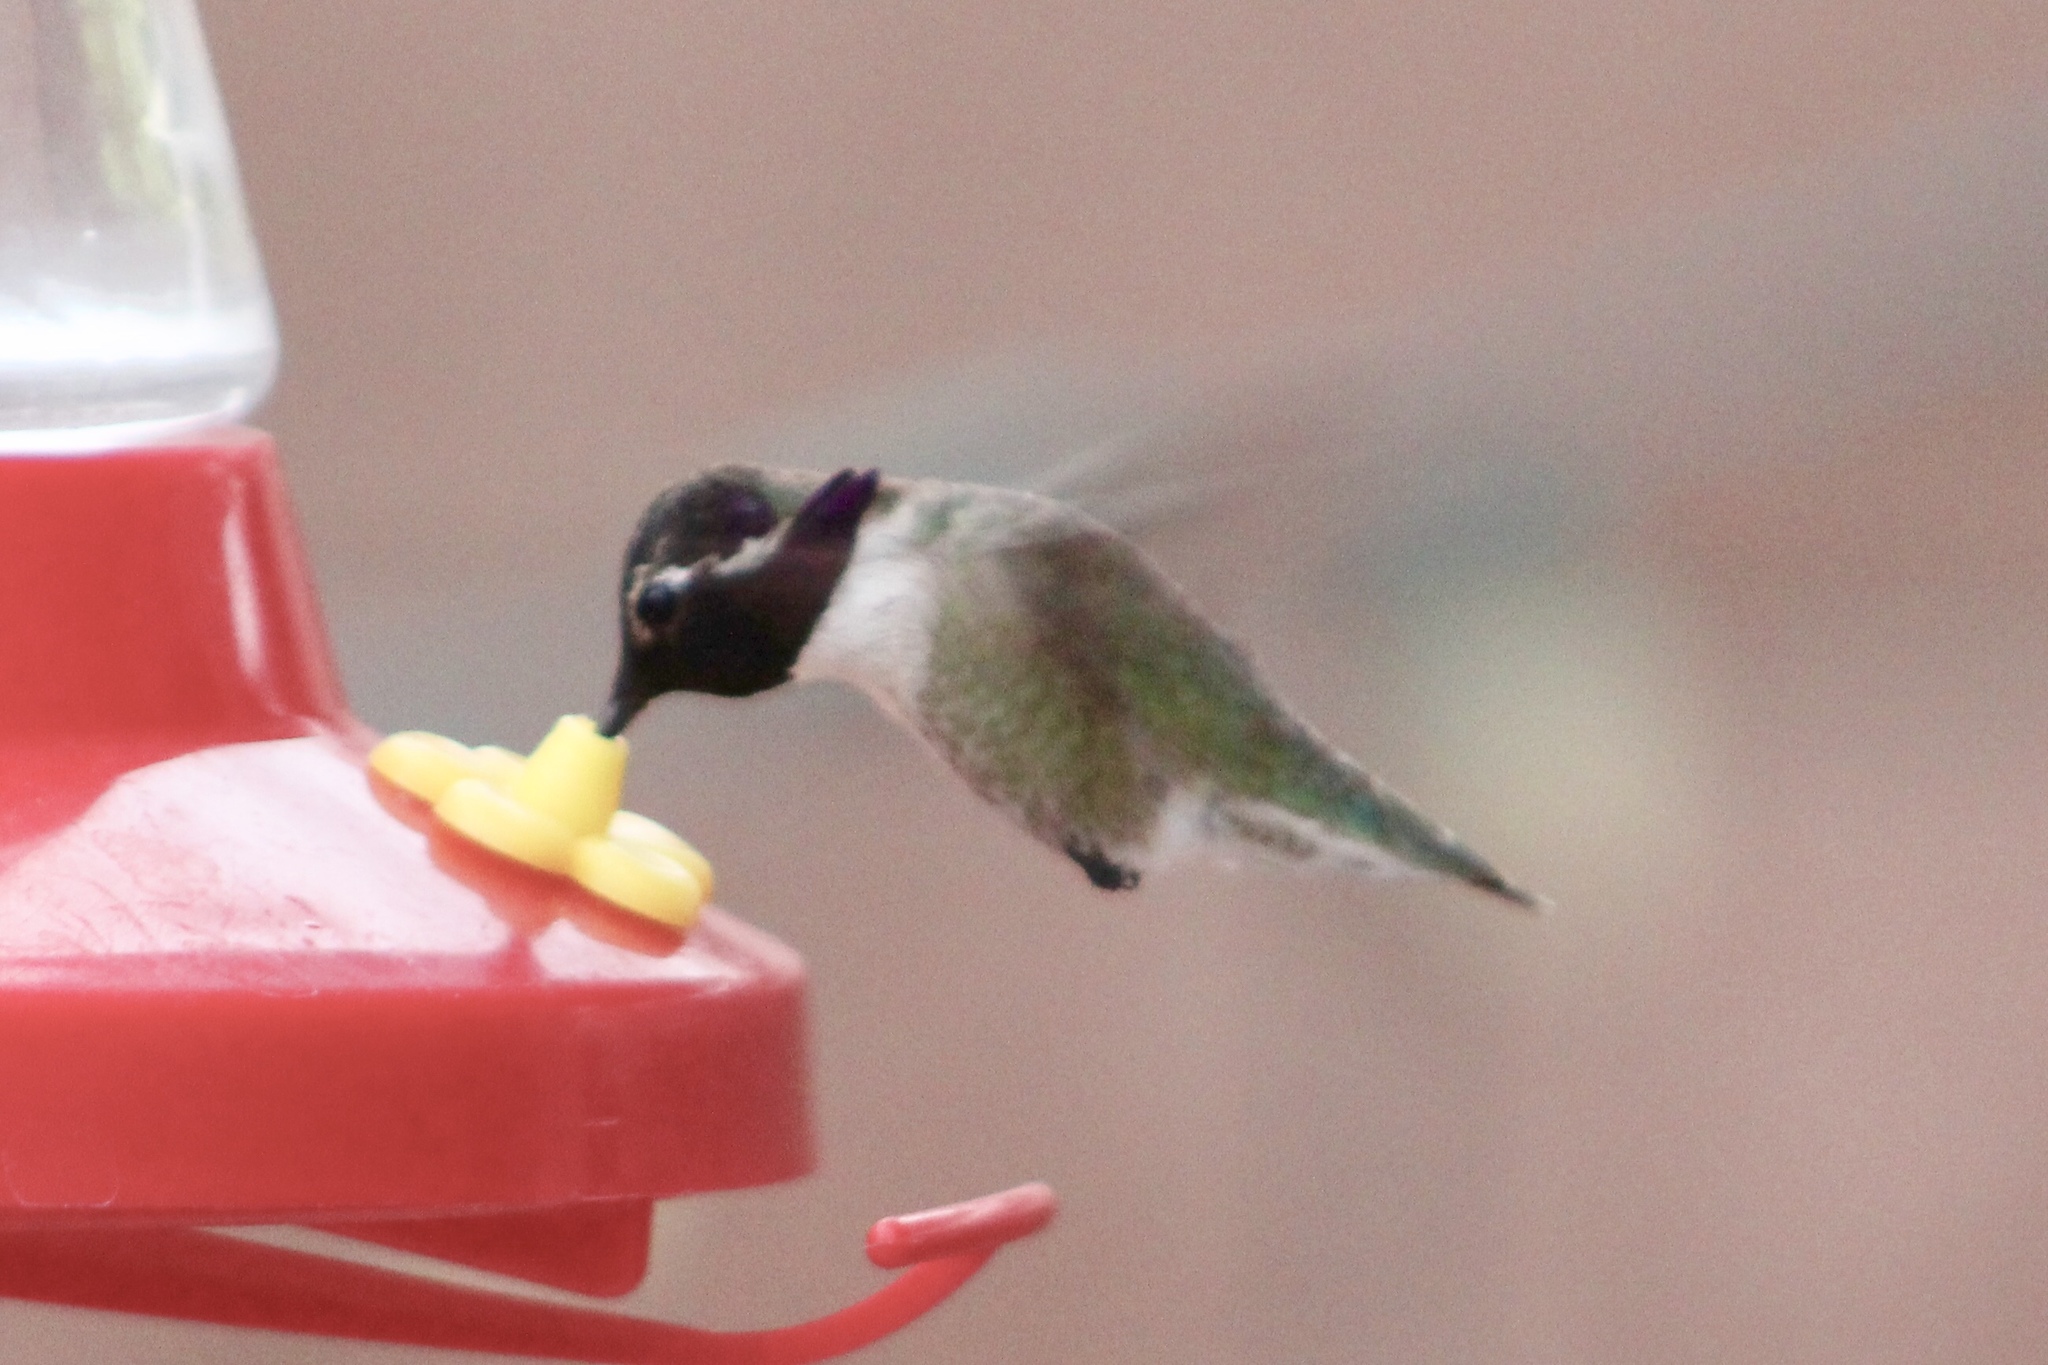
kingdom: Animalia
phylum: Chordata
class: Aves
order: Apodiformes
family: Trochilidae
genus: Calypte
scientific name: Calypte costae
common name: Costa's hummingbird
